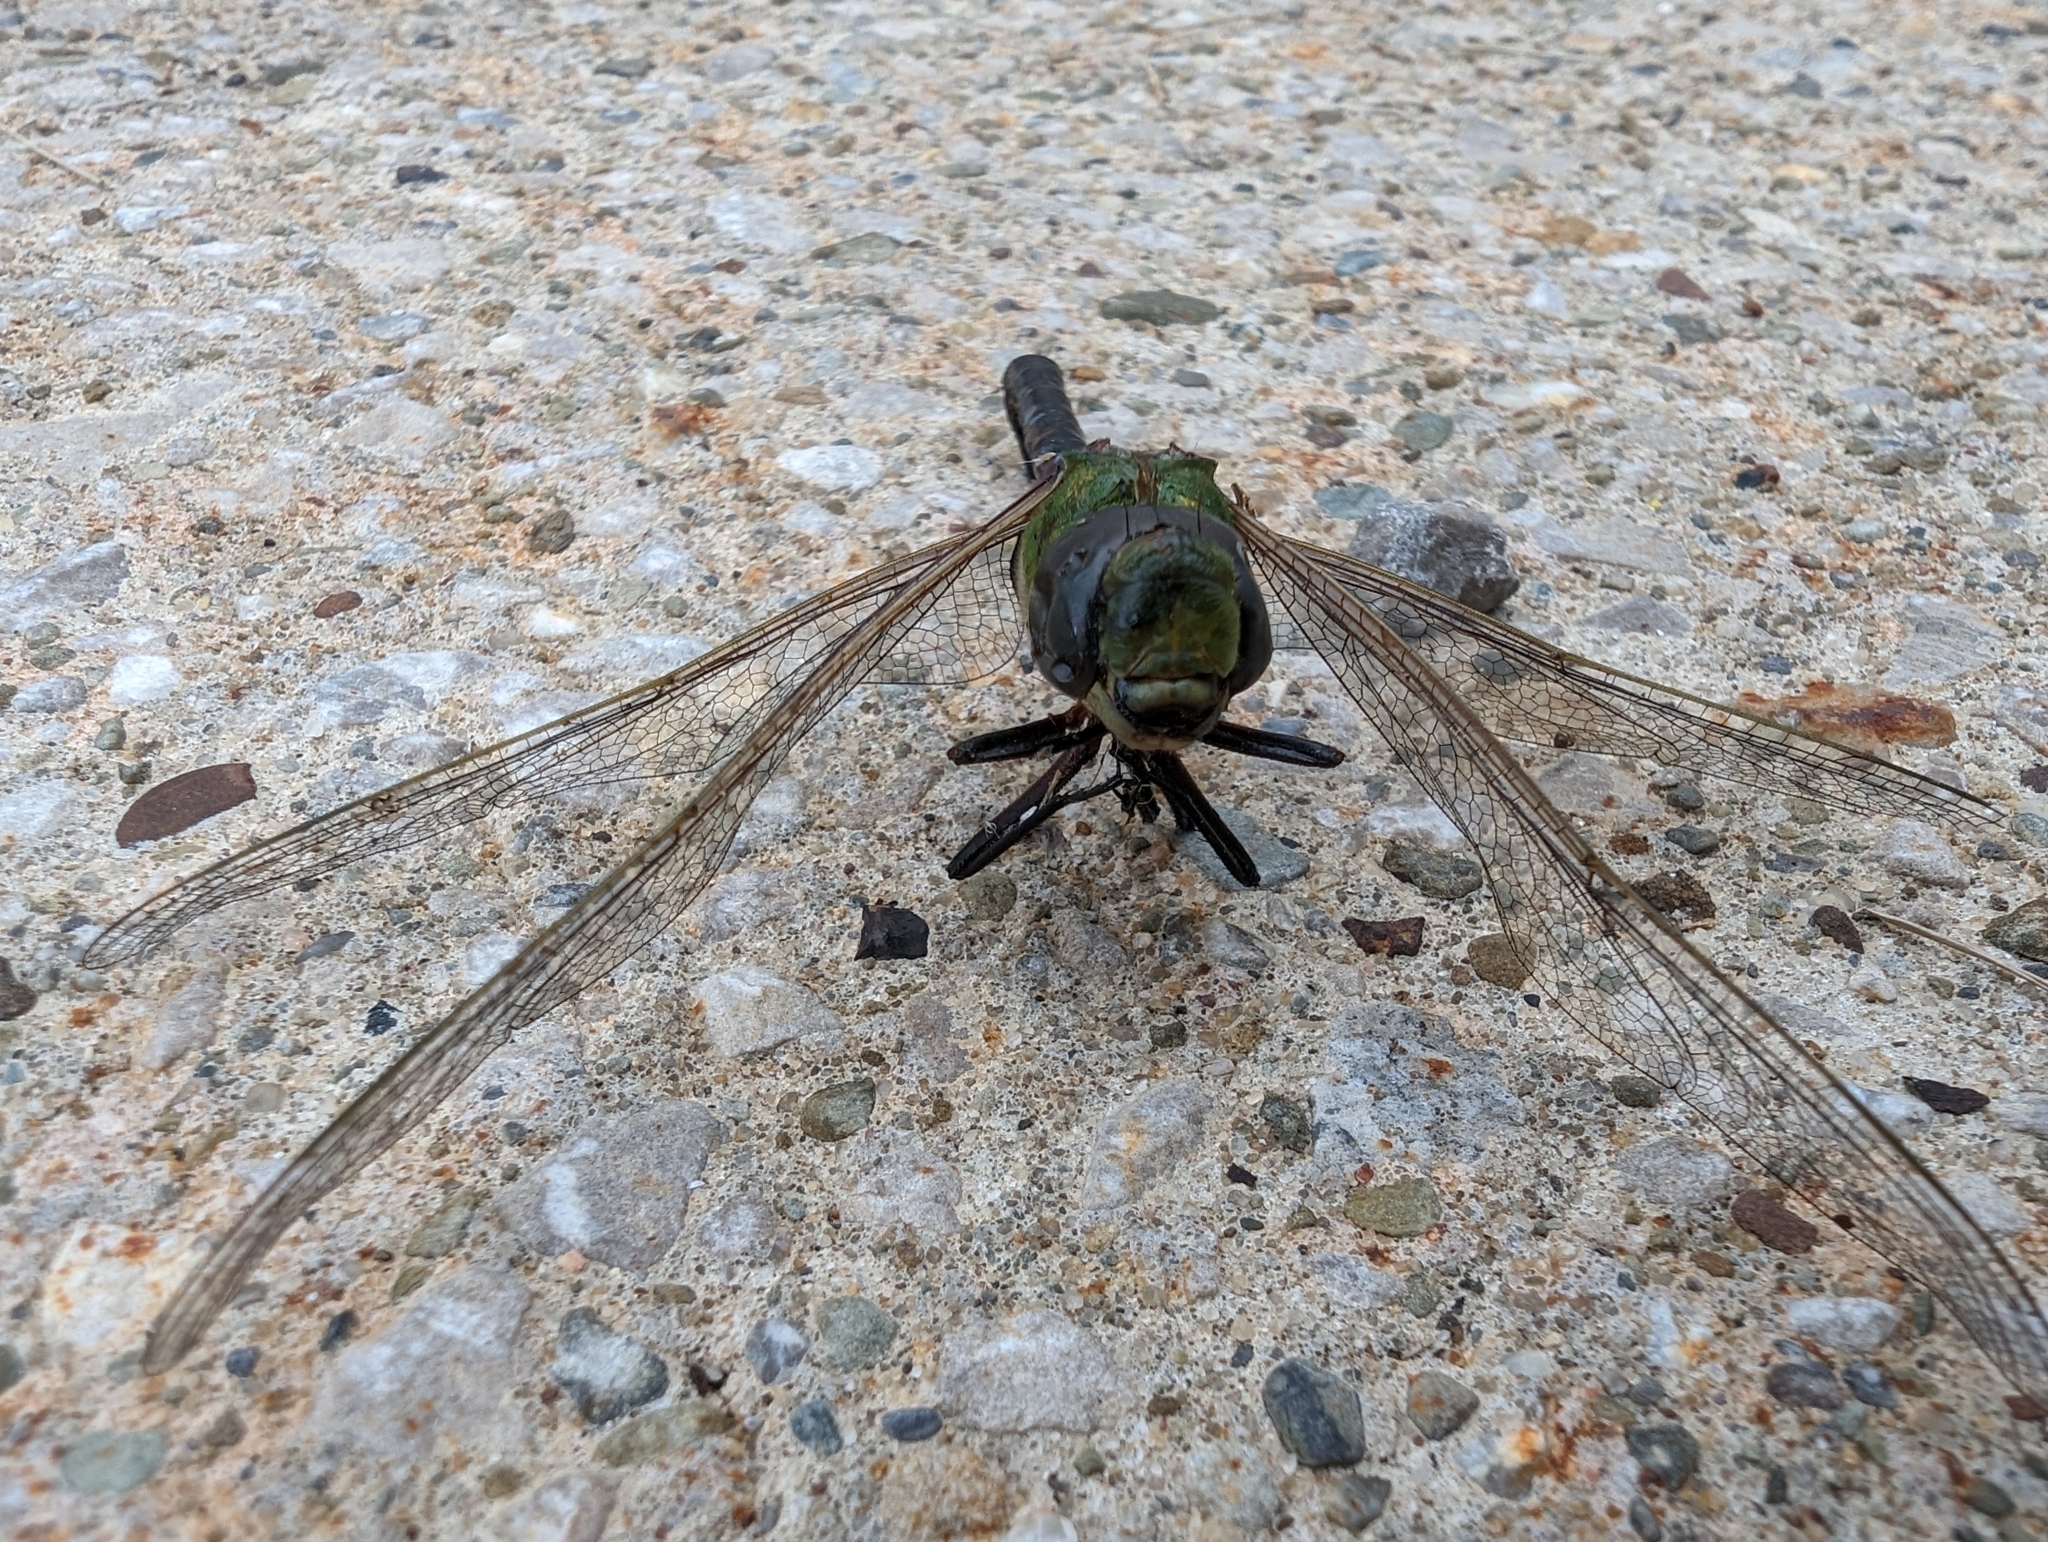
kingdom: Animalia
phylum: Arthropoda
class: Insecta
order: Odonata
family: Aeshnidae
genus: Anax
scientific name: Anax junius
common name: Common green darner
